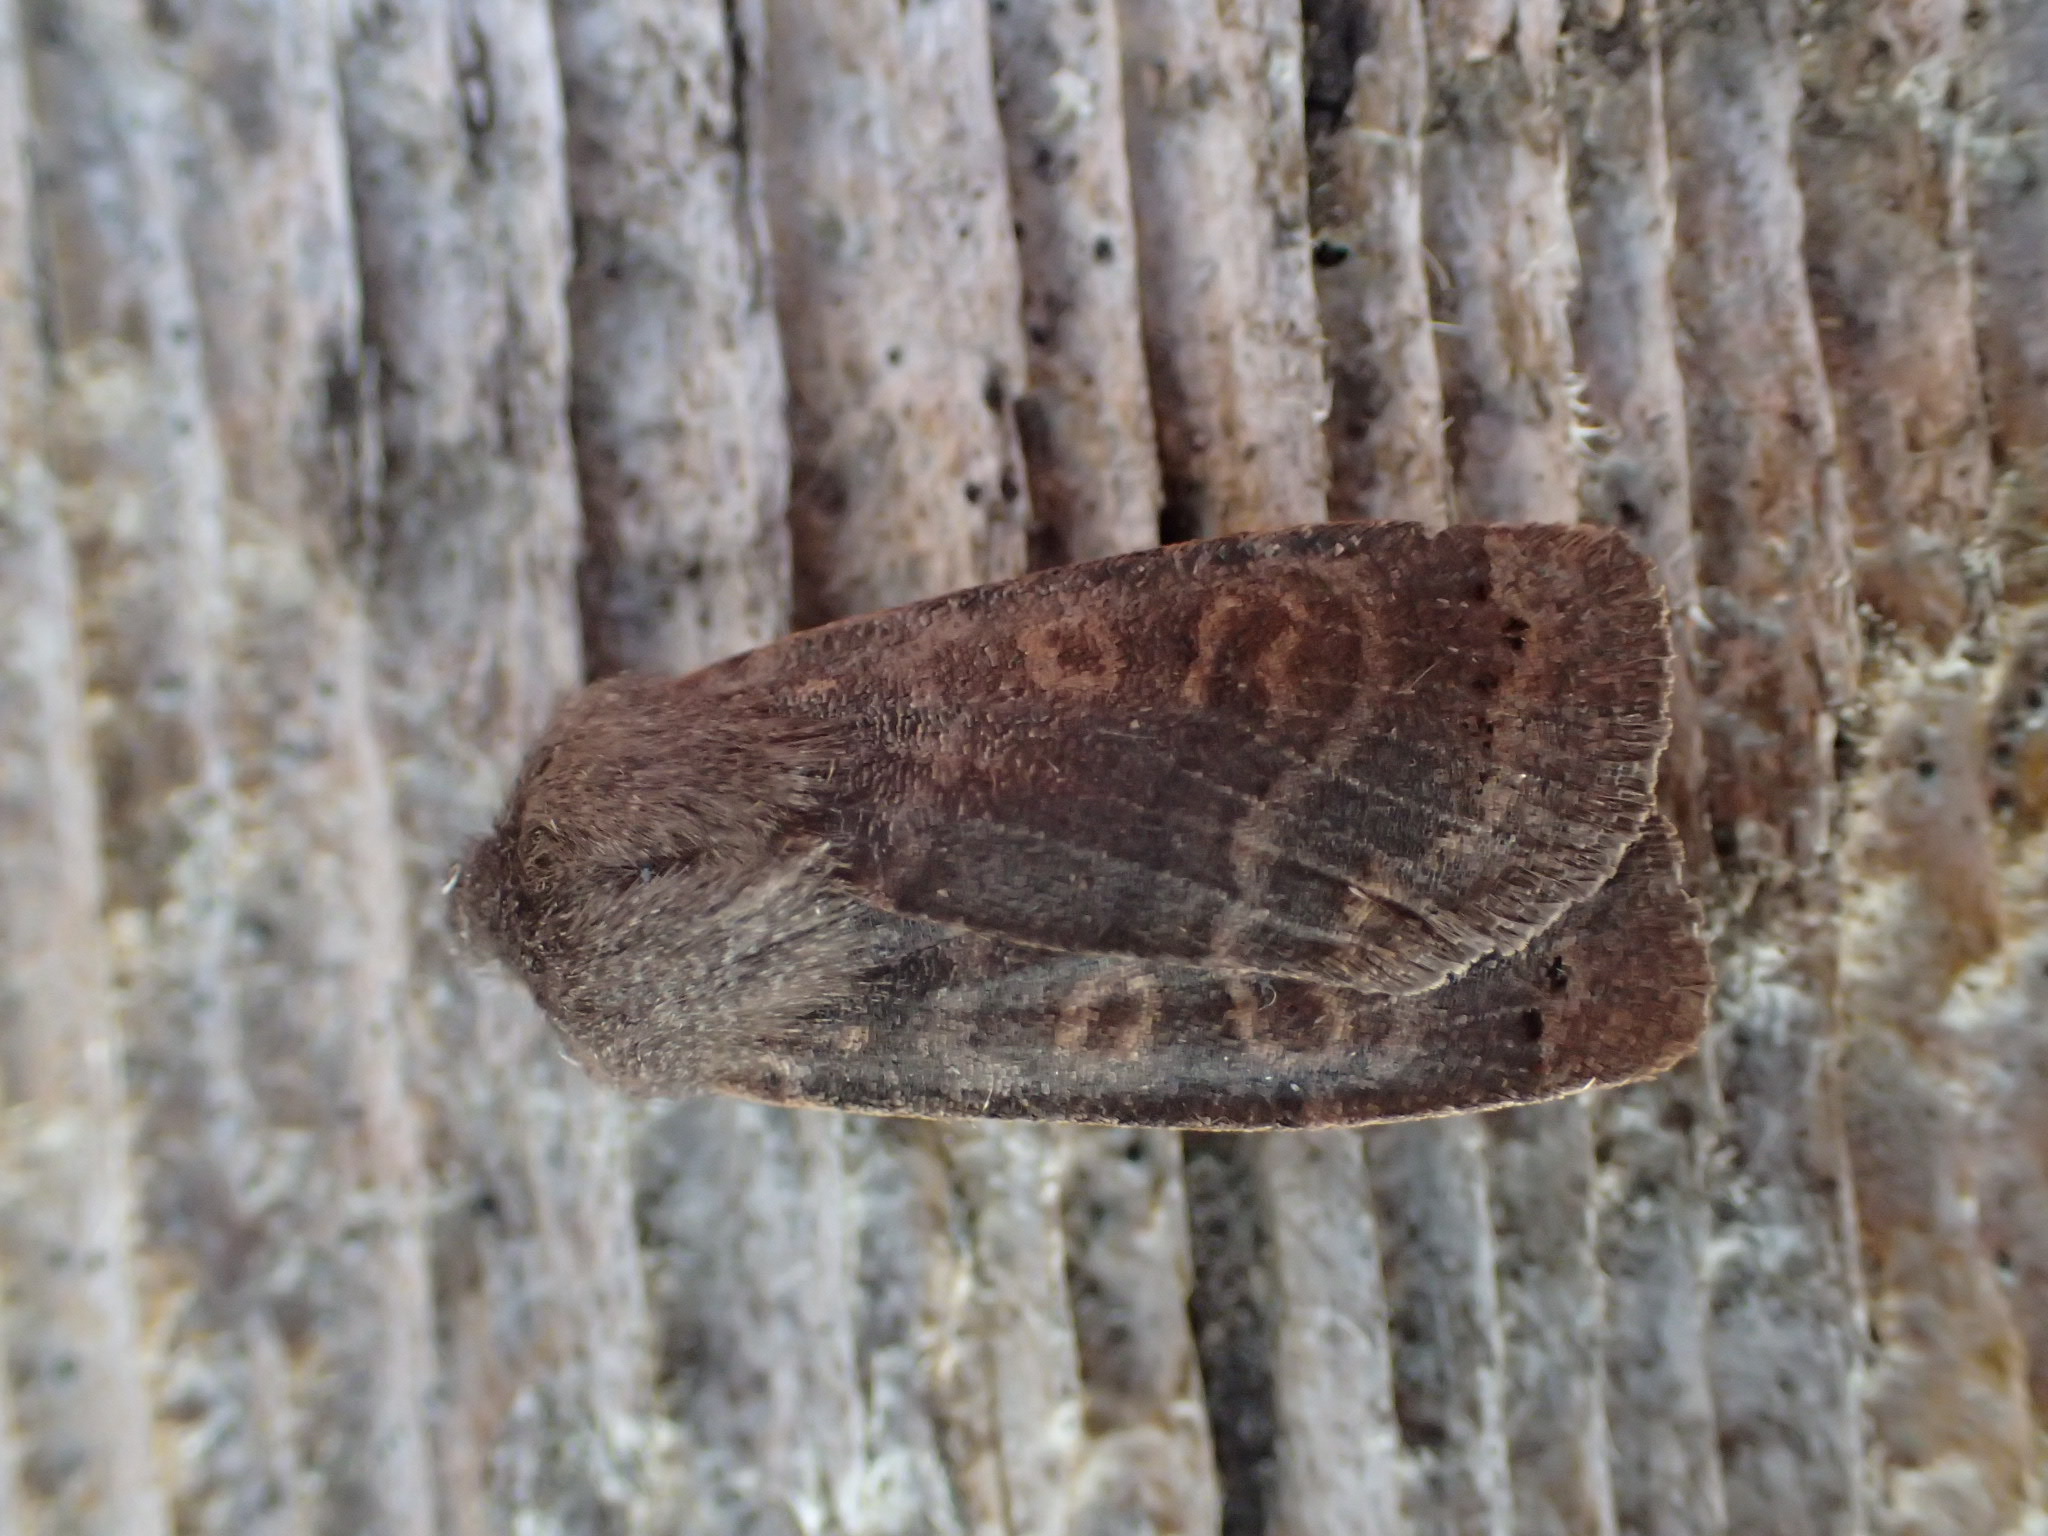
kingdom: Animalia
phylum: Arthropoda
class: Insecta
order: Lepidoptera
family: Noctuidae
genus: Homoglaea
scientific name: Homoglaea hircina
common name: Goat sallow
